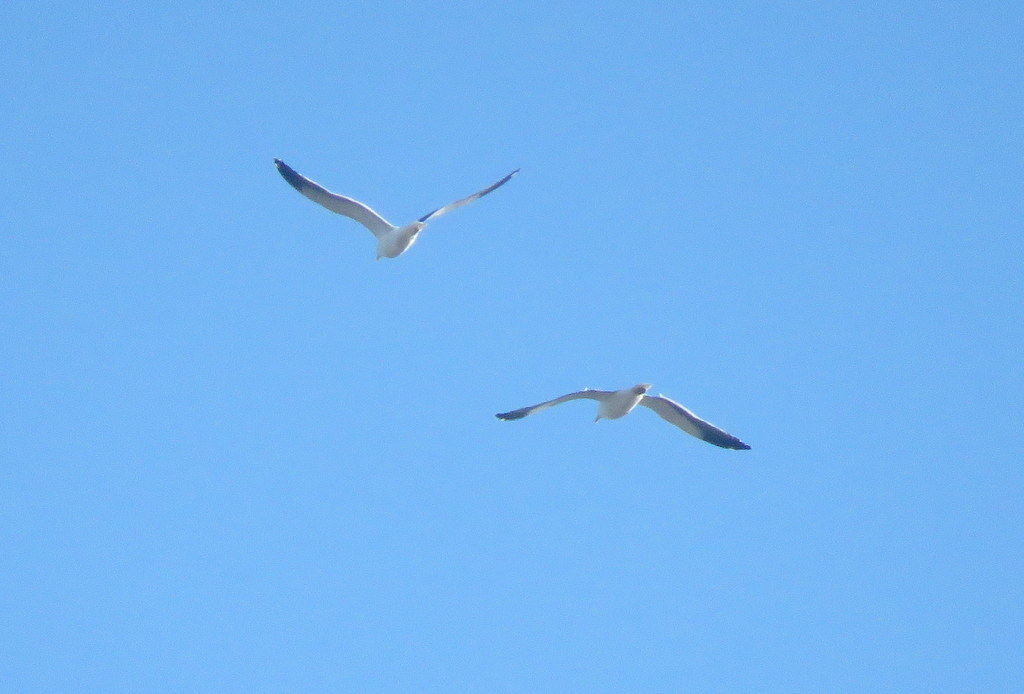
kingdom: Animalia
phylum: Chordata
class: Aves
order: Charadriiformes
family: Laridae
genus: Larus
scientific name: Larus dominicanus
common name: Kelp gull
